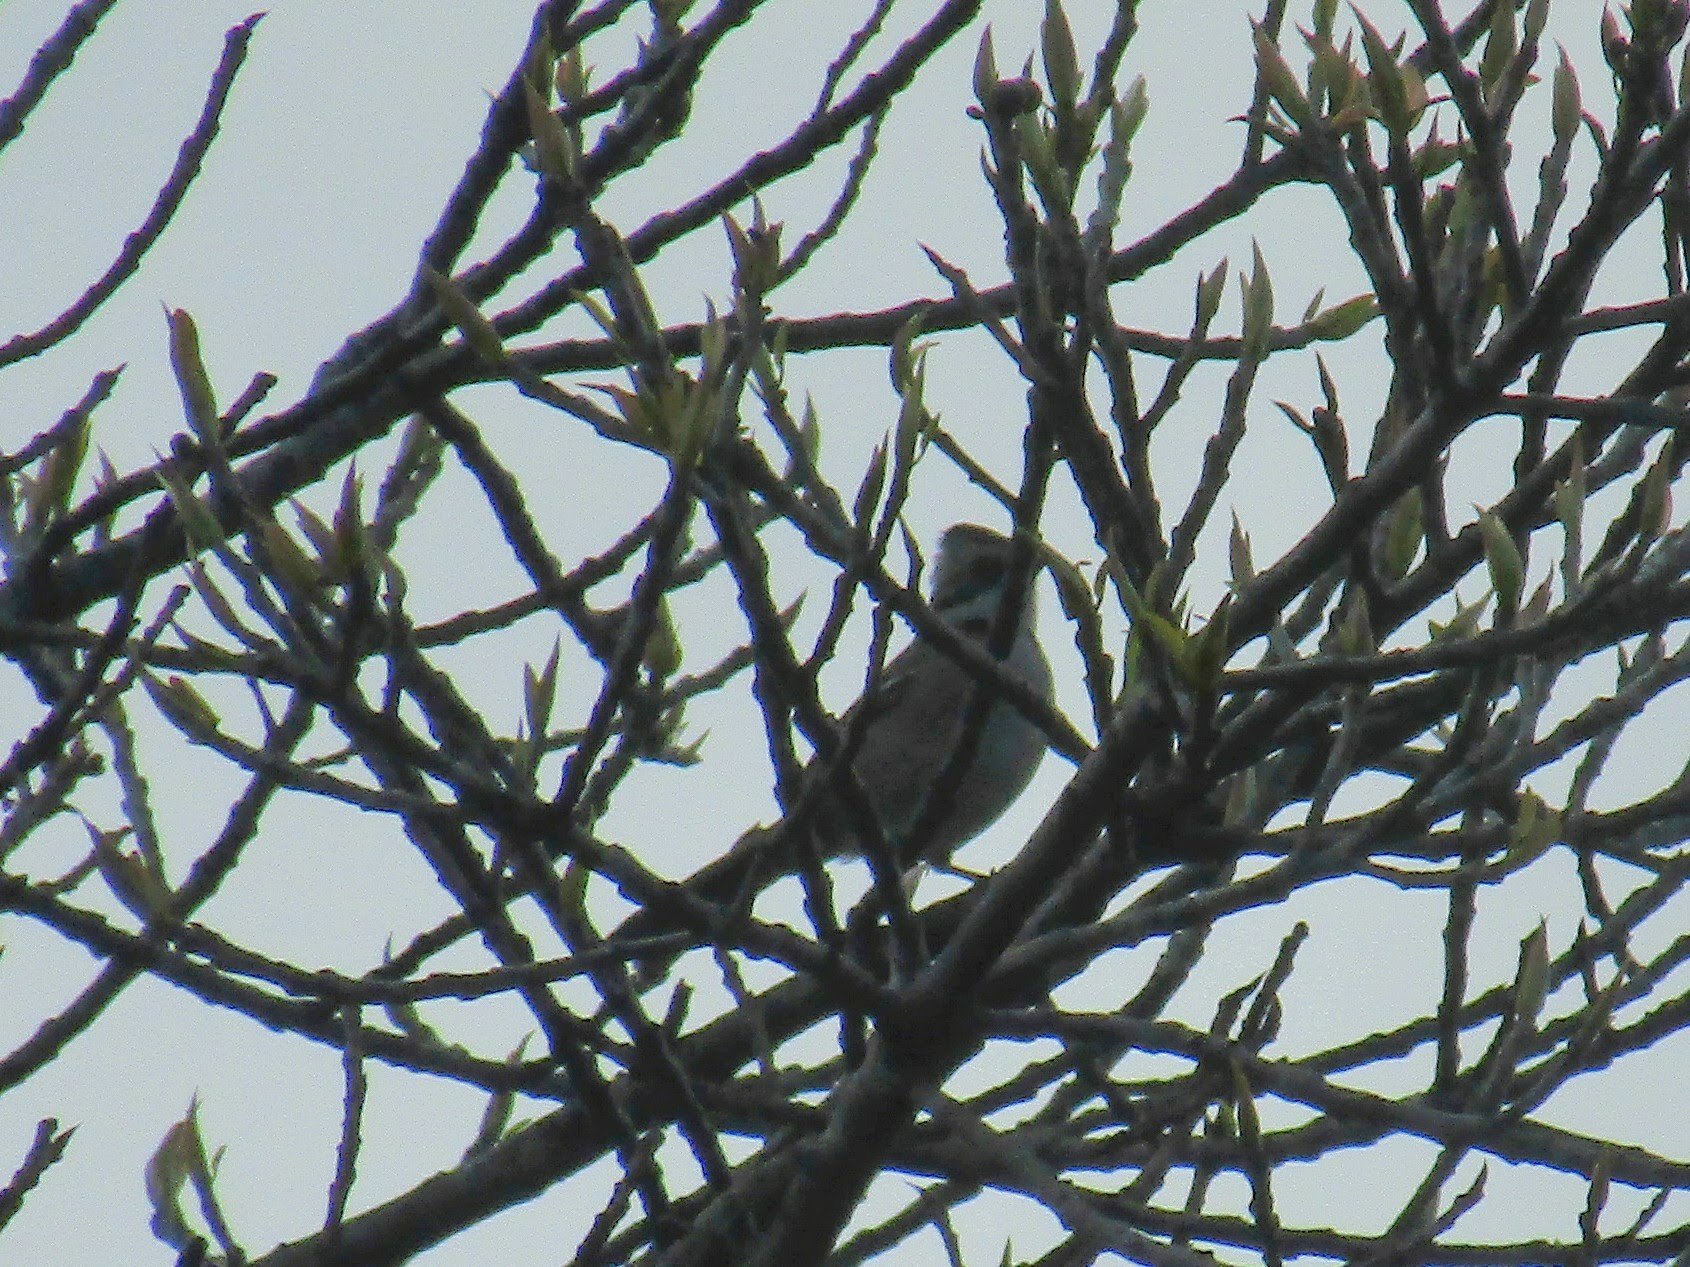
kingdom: Animalia
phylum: Chordata
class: Aves
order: Passeriformes
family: Passerellidae
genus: Zonotrichia
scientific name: Zonotrichia capensis
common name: Rufous-collared sparrow
